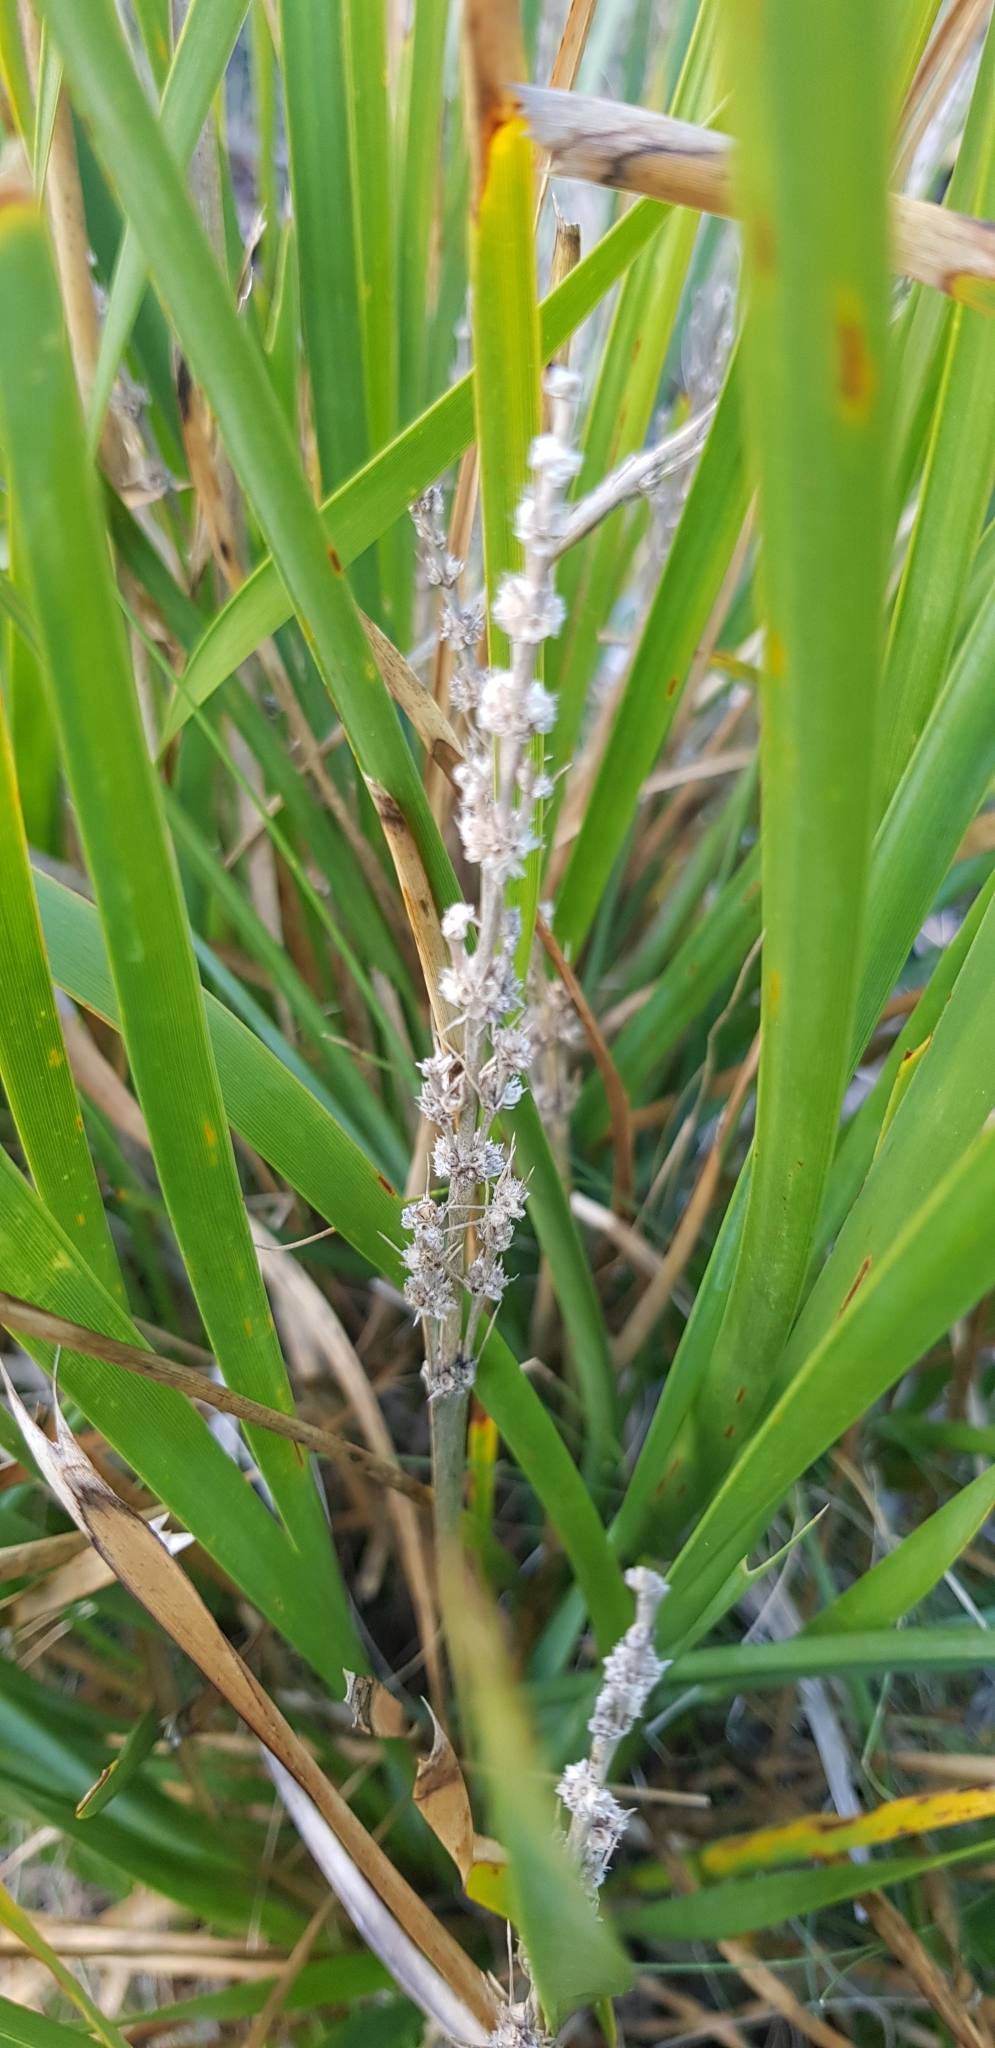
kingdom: Plantae
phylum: Tracheophyta
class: Liliopsida
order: Asparagales
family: Asparagaceae
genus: Lomandra
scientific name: Lomandra longifolia
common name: Longleaf mat-rush
